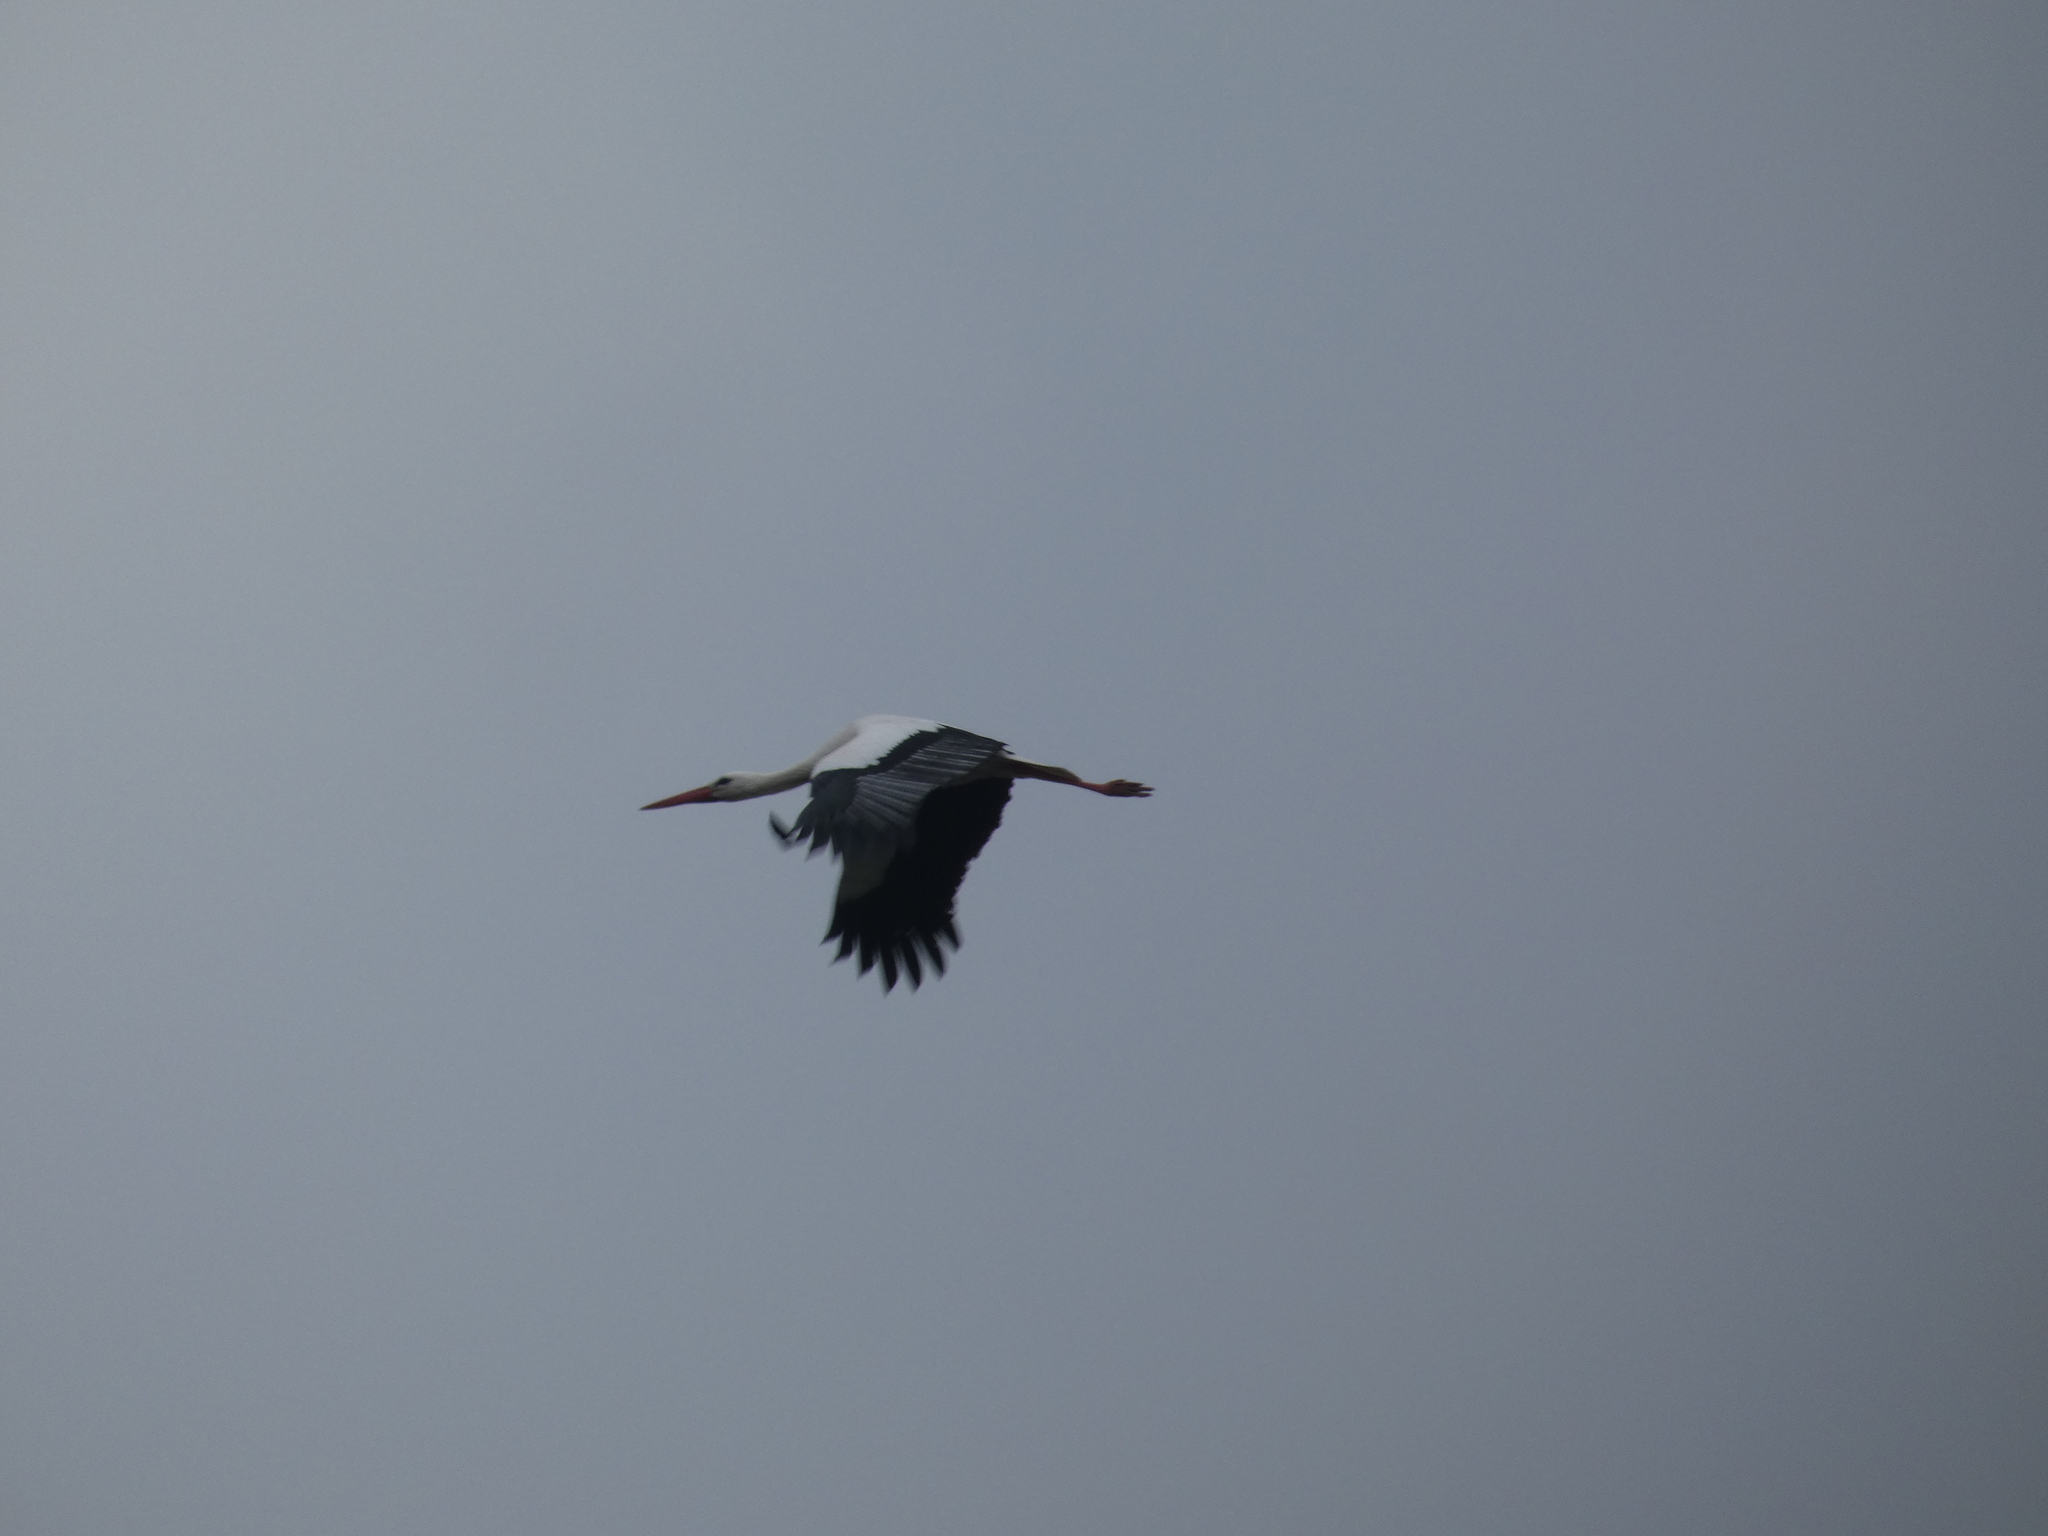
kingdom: Animalia
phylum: Chordata
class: Aves
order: Ciconiiformes
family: Ciconiidae
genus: Ciconia
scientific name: Ciconia ciconia
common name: White stork
